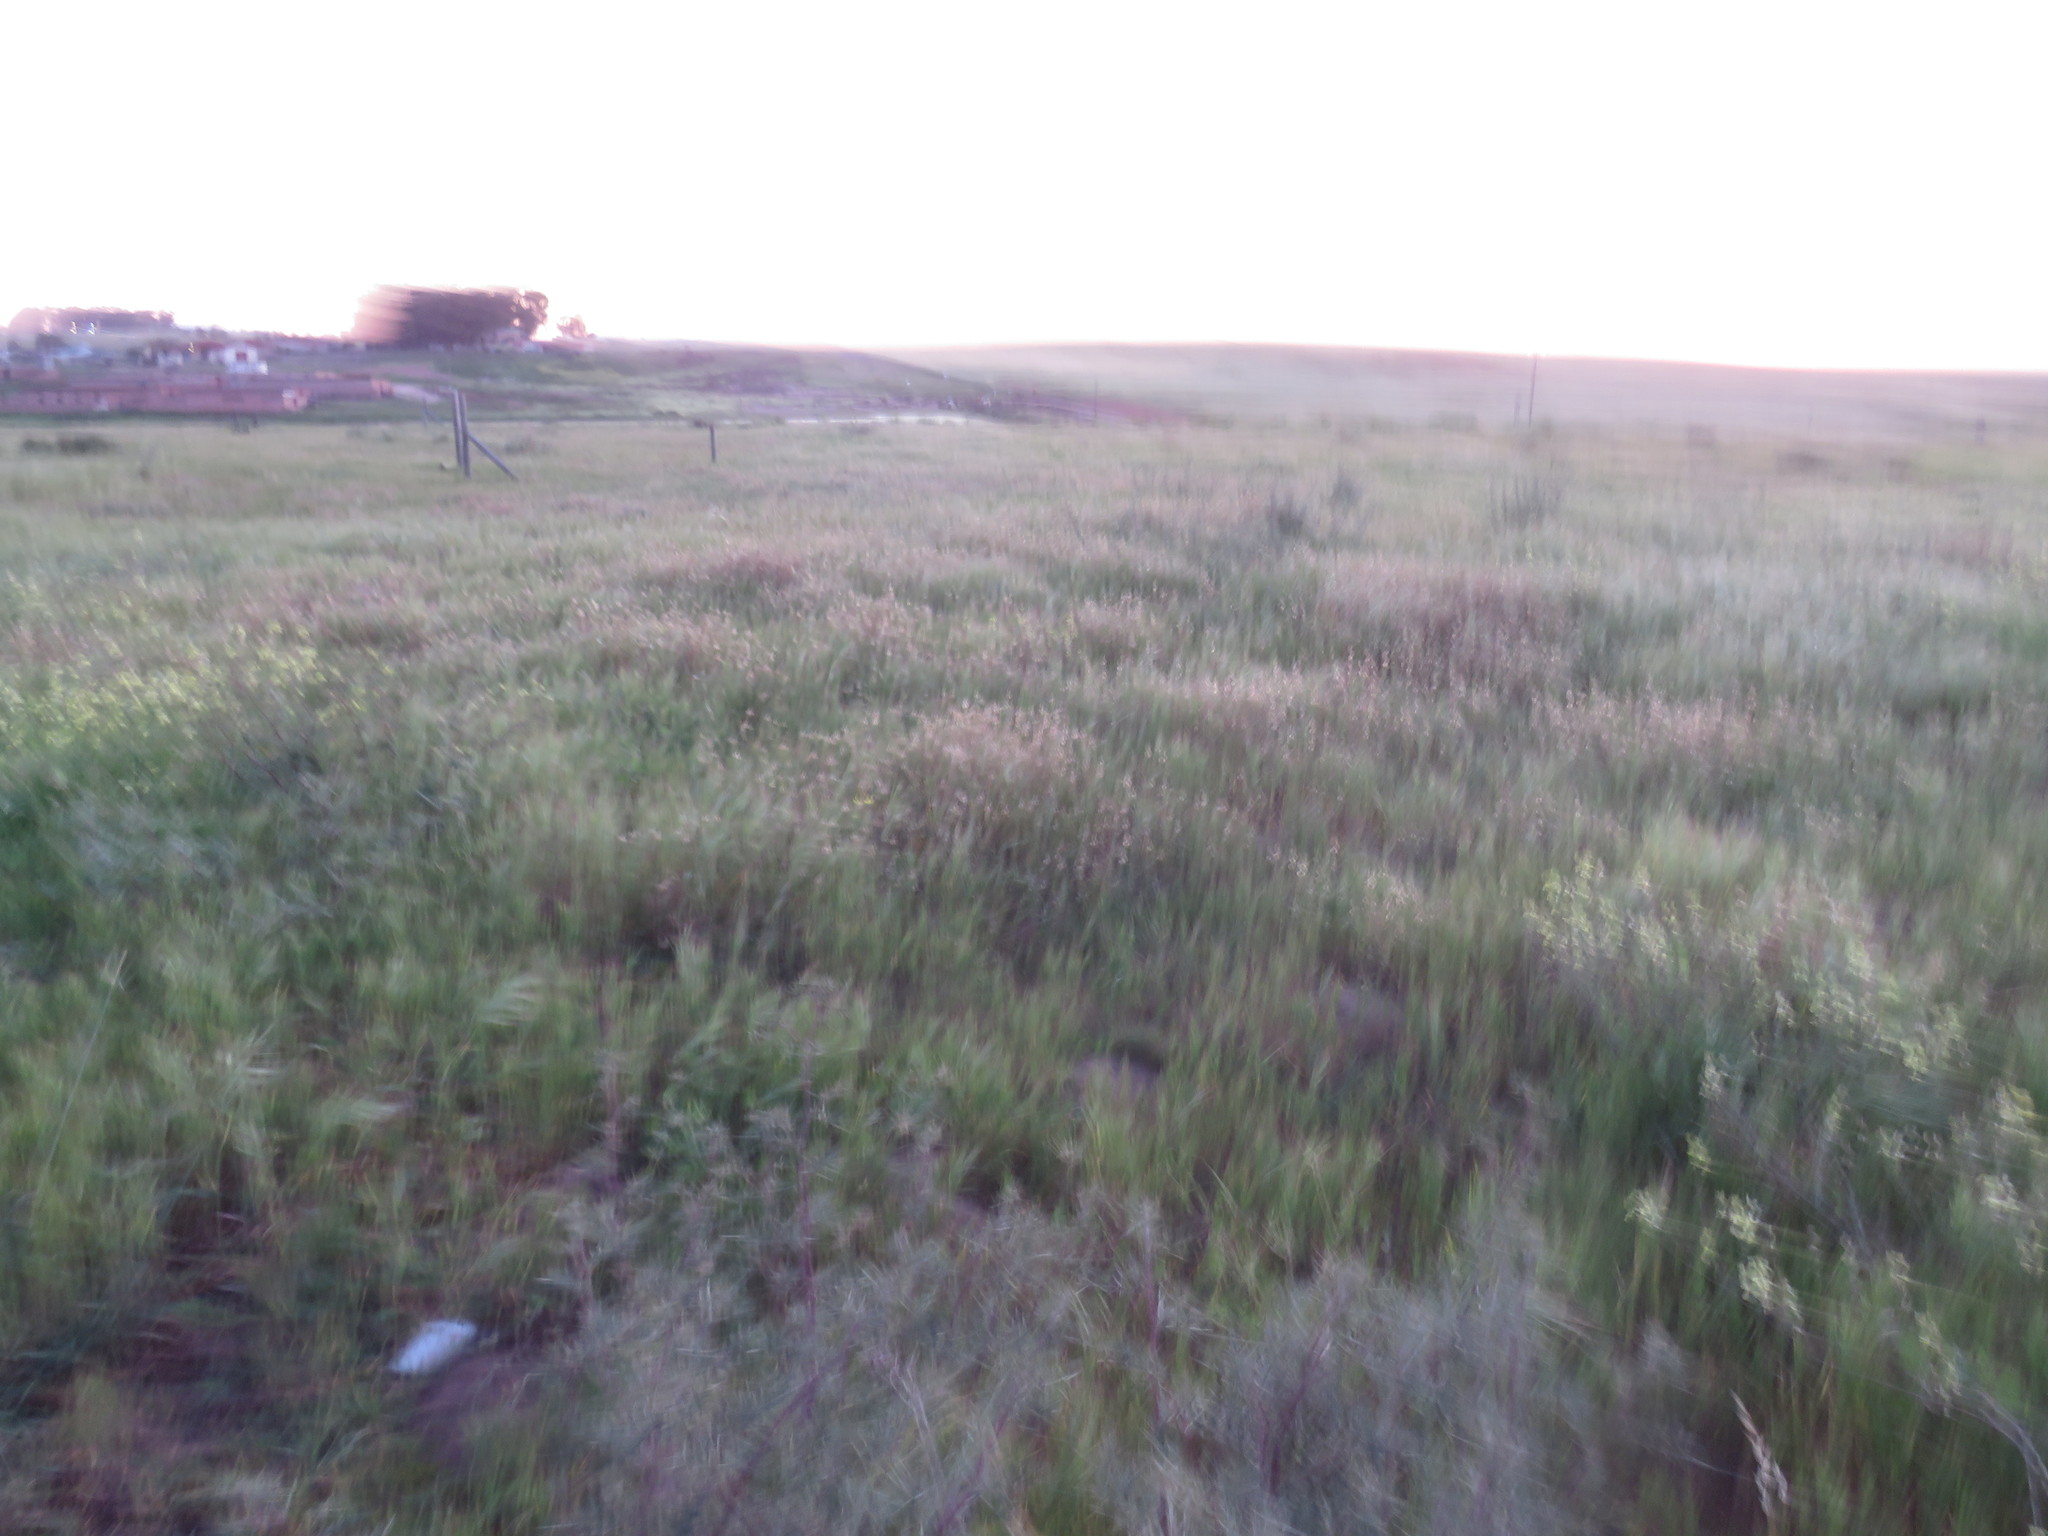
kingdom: Plantae
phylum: Tracheophyta
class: Magnoliopsida
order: Asterales
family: Asteraceae
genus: Osteospermum
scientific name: Osteospermum monstrosum
